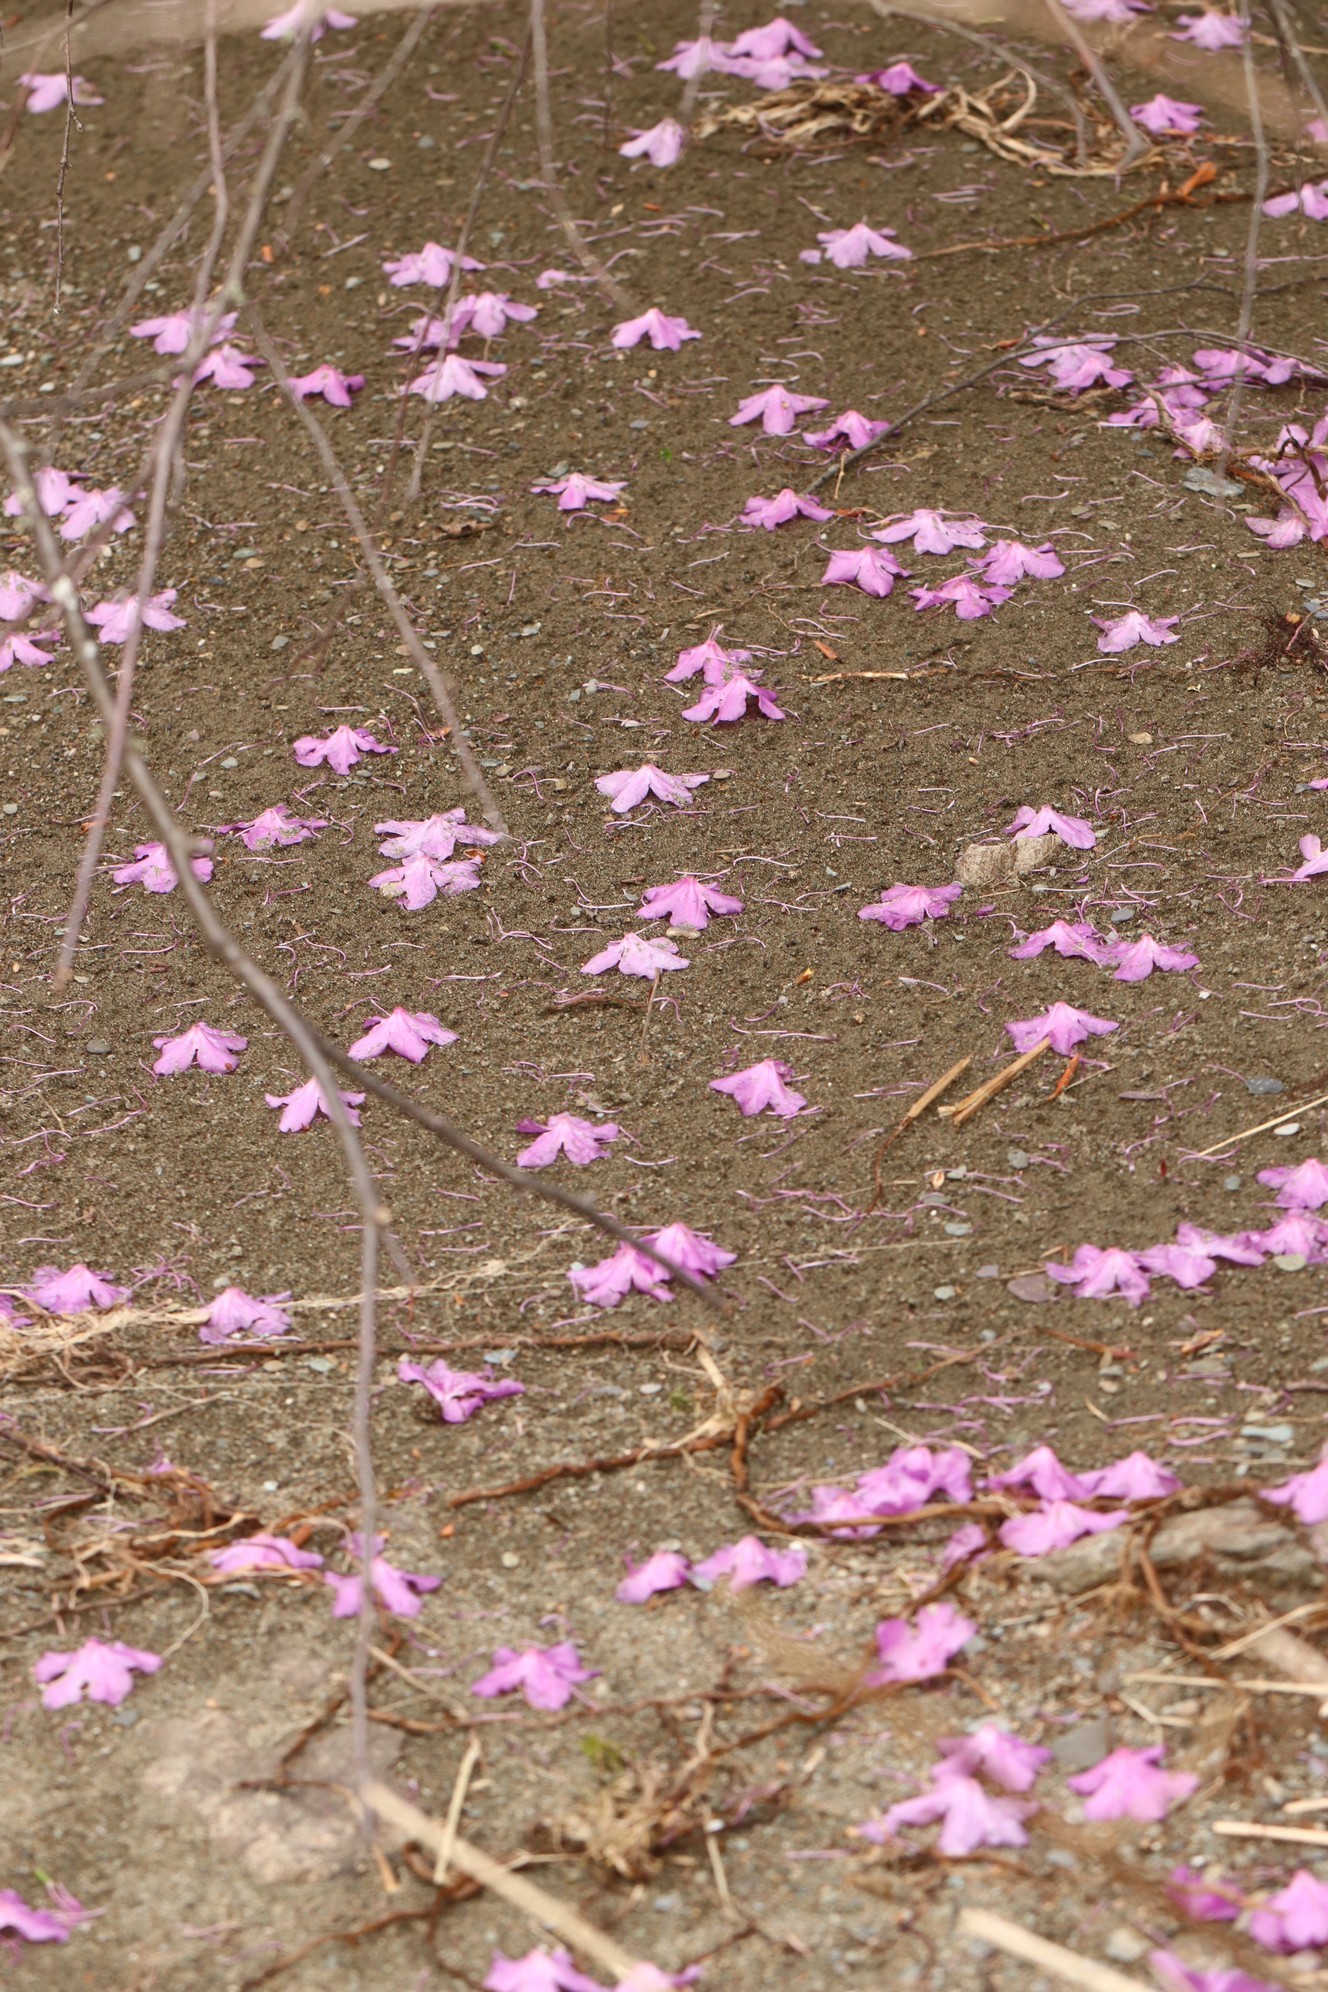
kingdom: Plantae
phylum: Tracheophyta
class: Magnoliopsida
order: Ericales
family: Ericaceae
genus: Rhododendron
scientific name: Rhododendron dauricum
